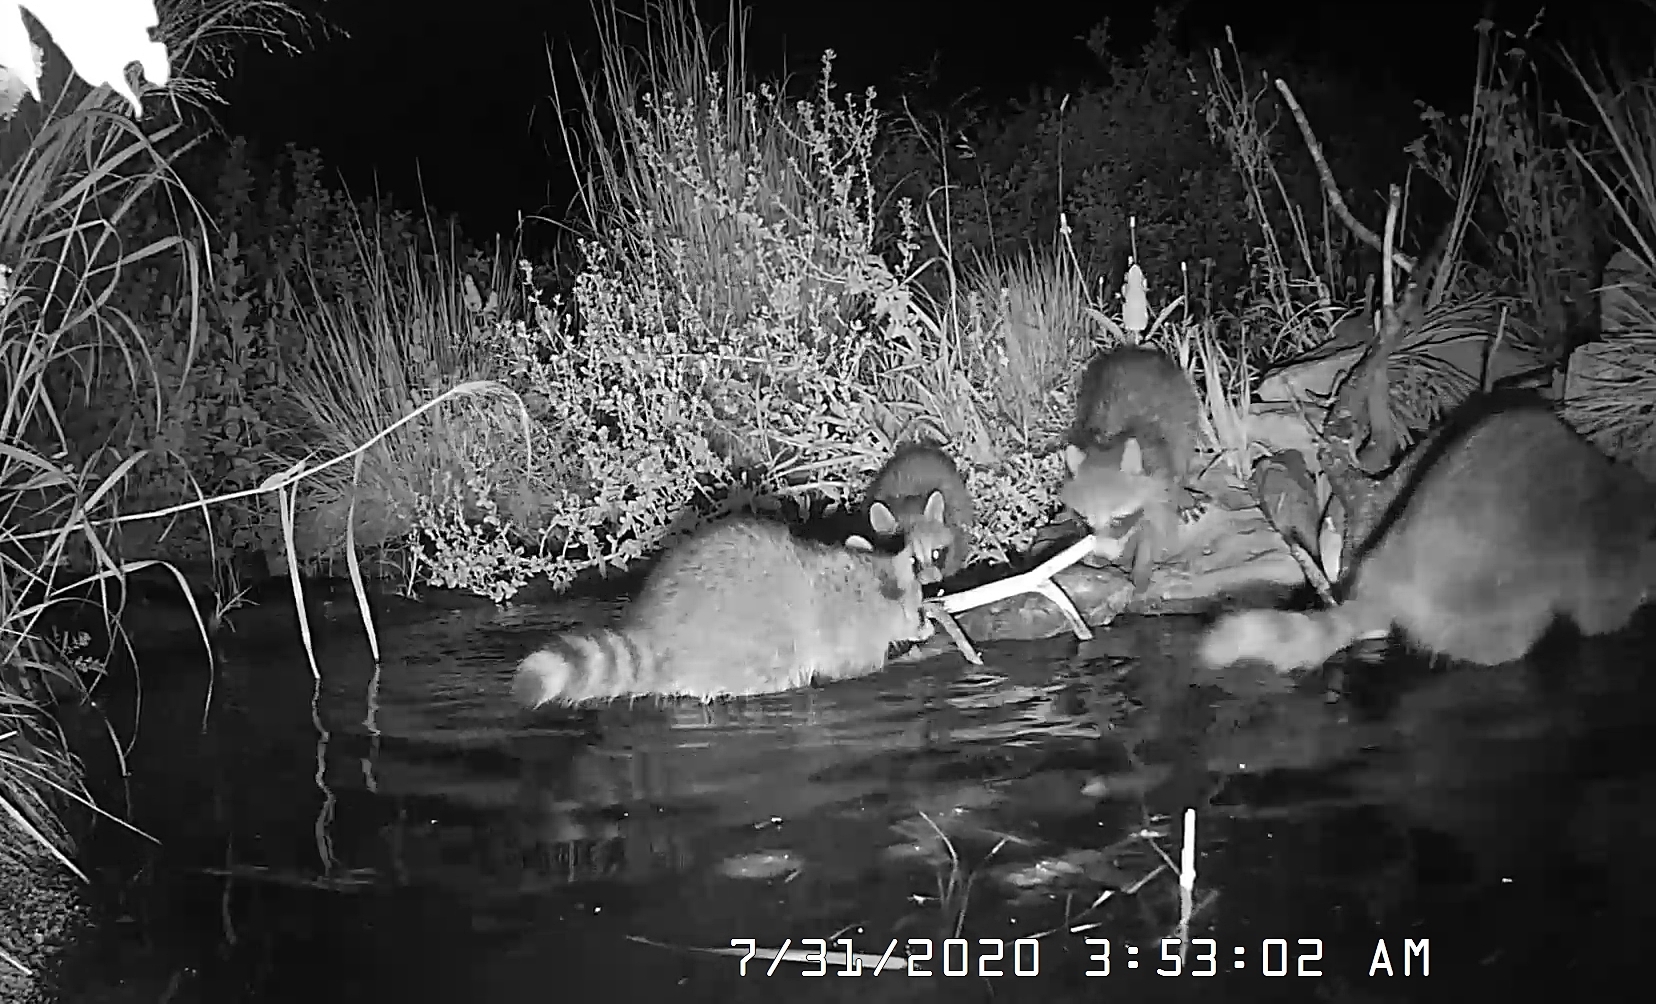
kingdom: Animalia
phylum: Chordata
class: Mammalia
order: Carnivora
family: Procyonidae
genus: Procyon
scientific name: Procyon lotor
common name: Raccoon
